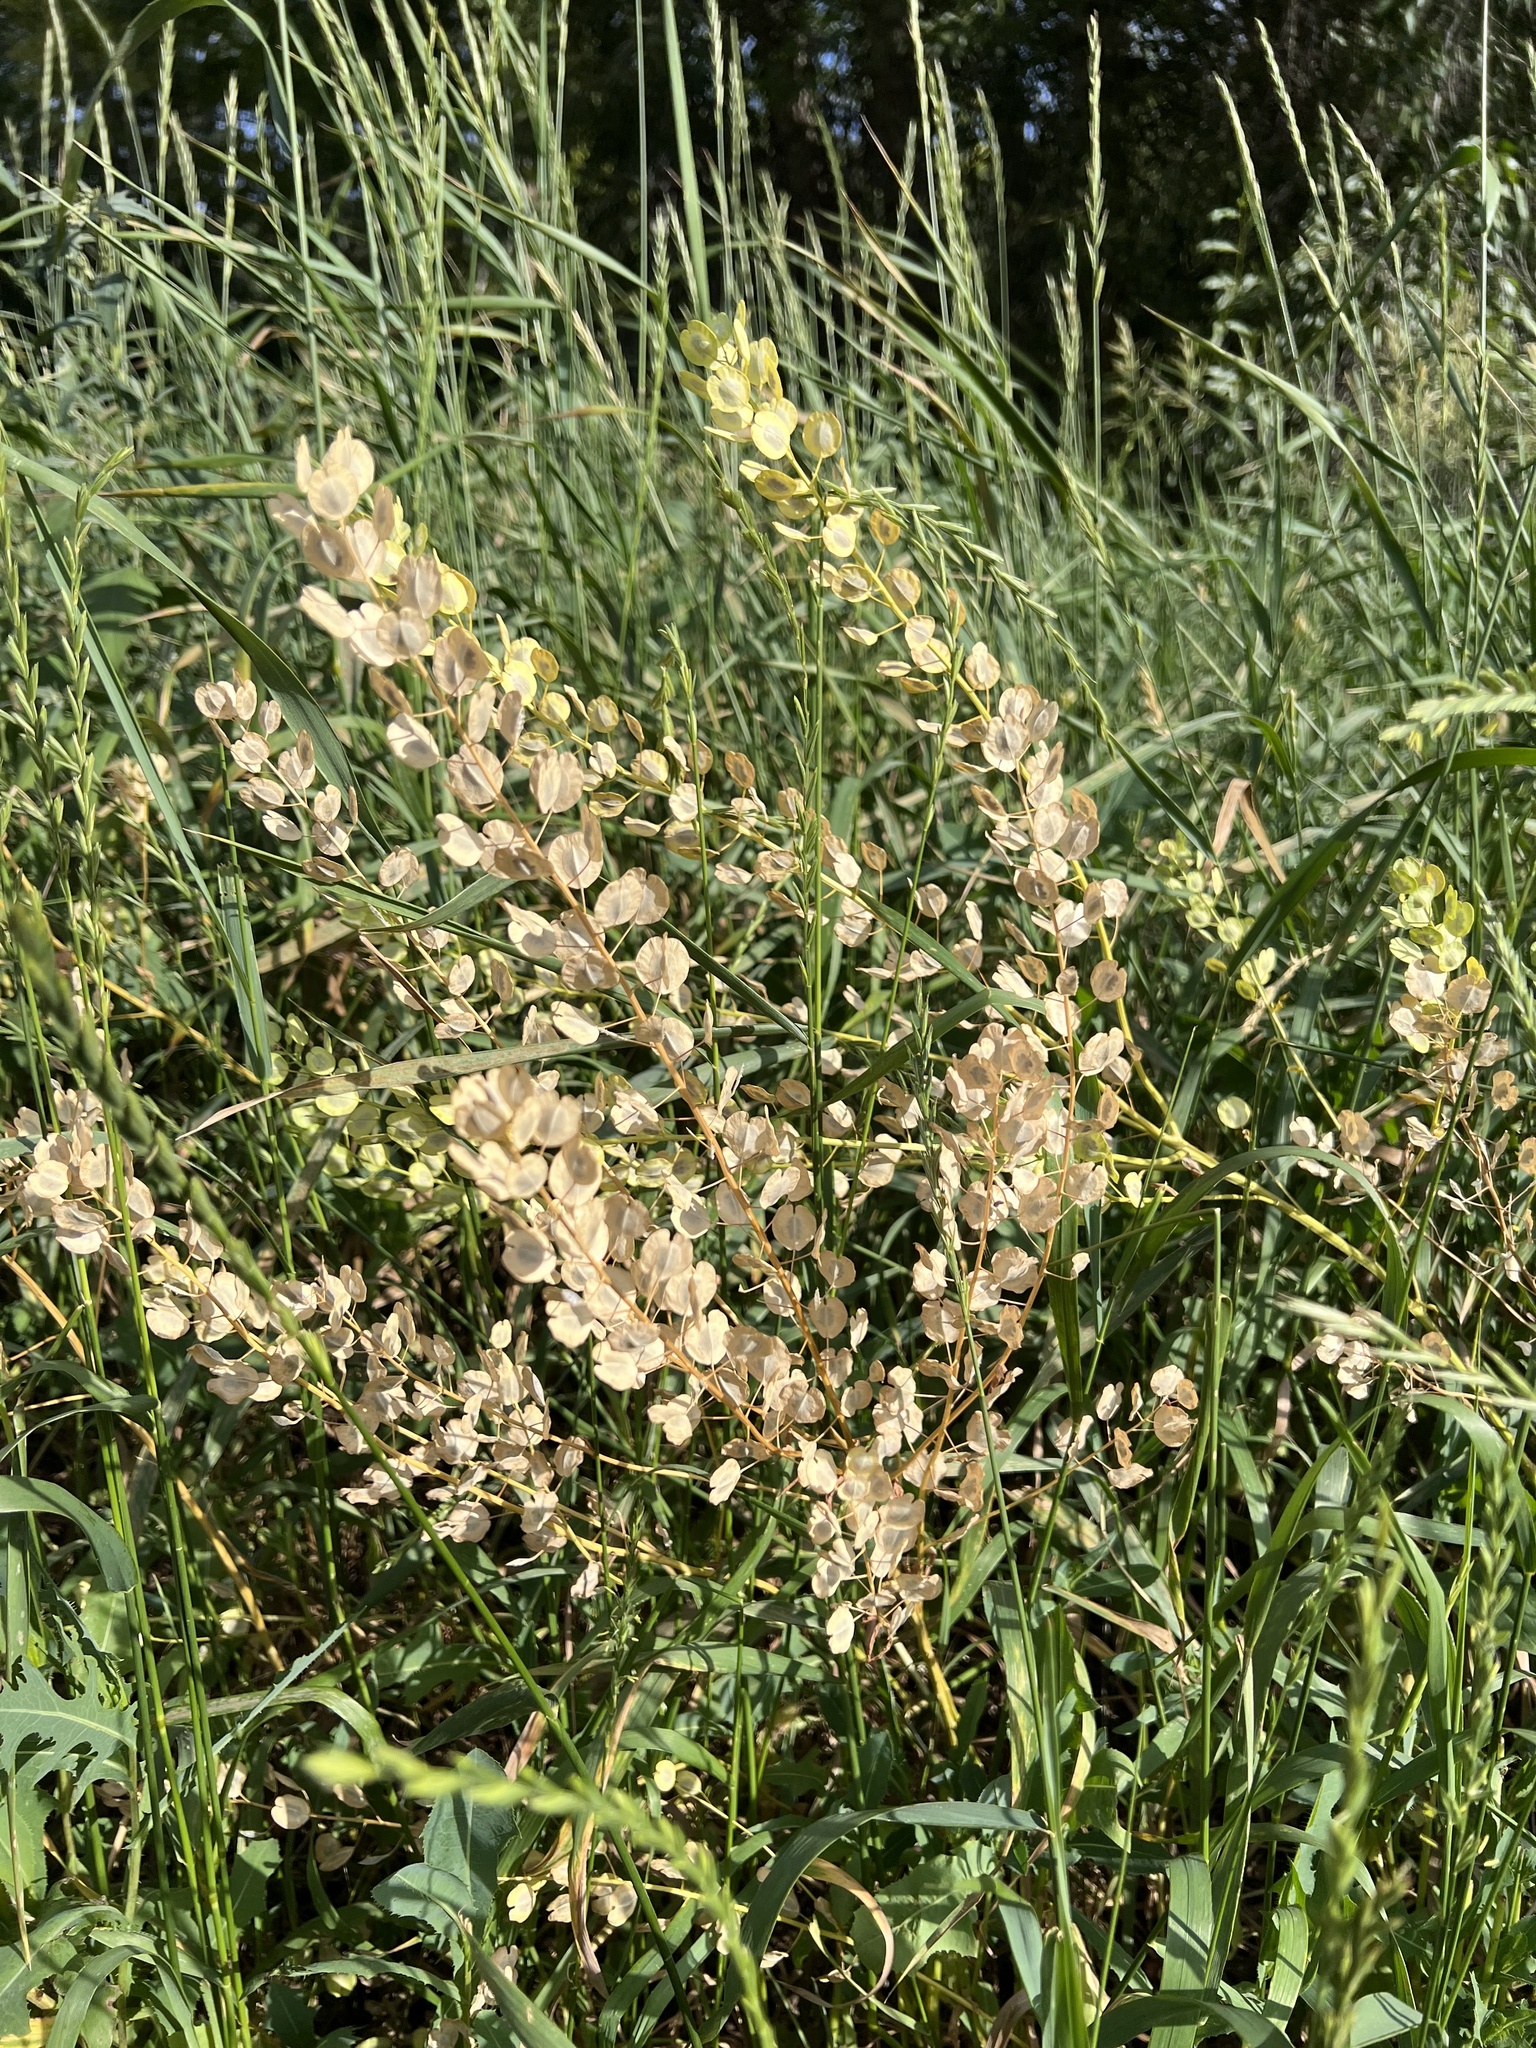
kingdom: Plantae
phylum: Tracheophyta
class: Magnoliopsida
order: Brassicales
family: Brassicaceae
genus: Thlaspi
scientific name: Thlaspi arvense
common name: Field pennycress
